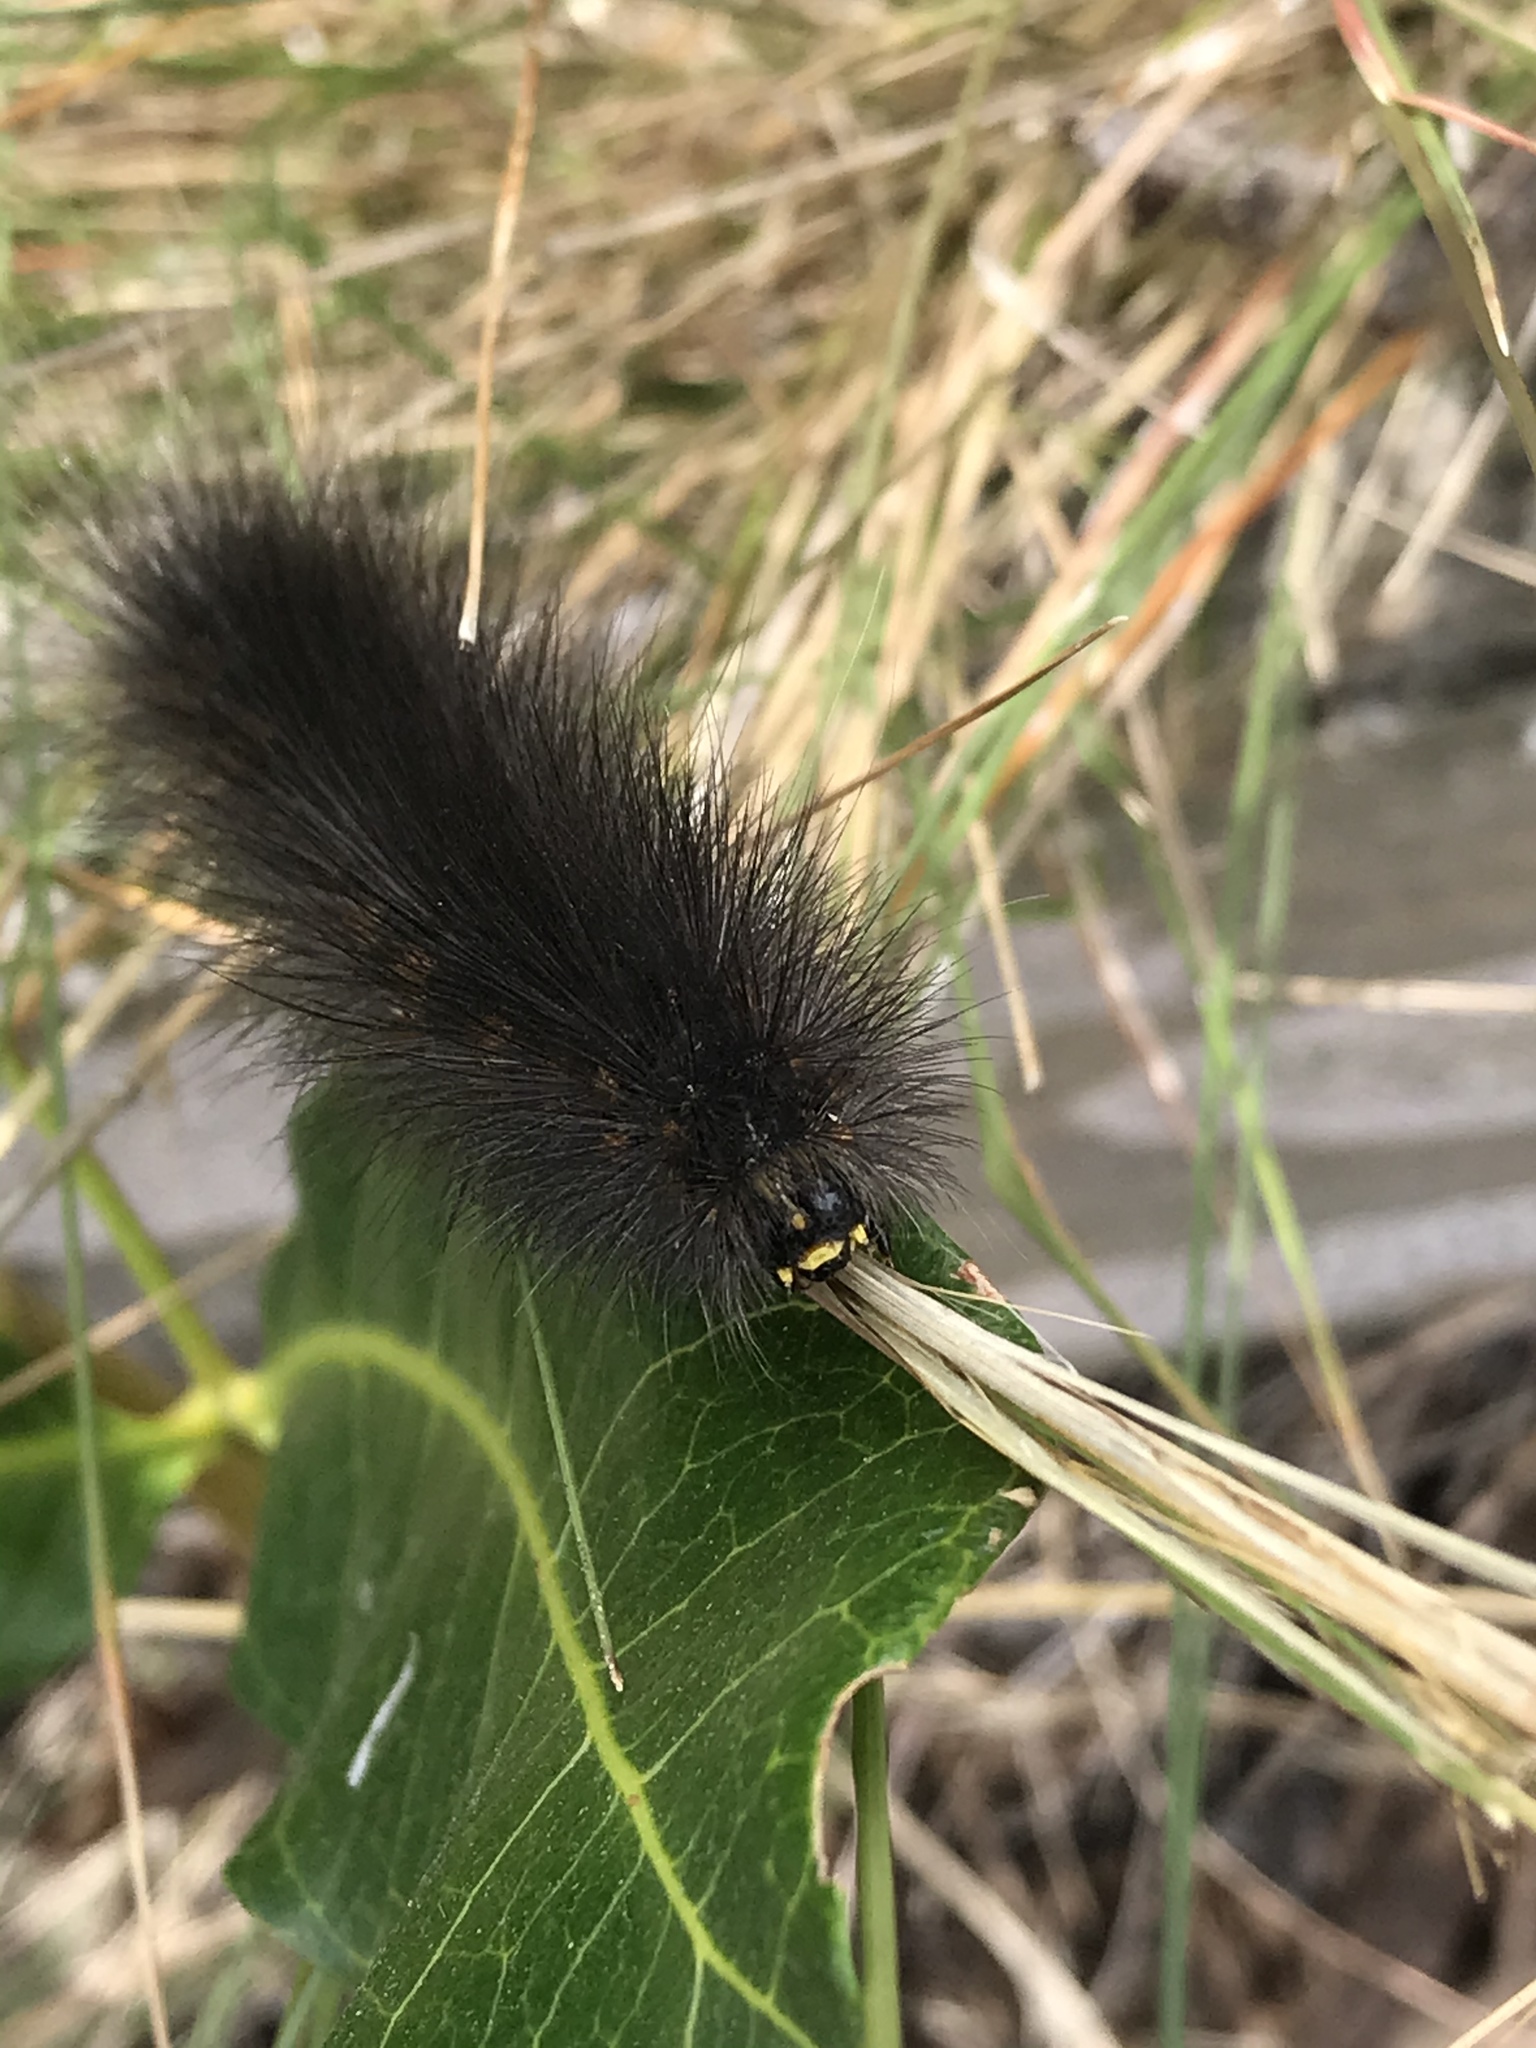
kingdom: Animalia
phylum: Arthropoda
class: Insecta
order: Lepidoptera
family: Erebidae
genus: Estigmene
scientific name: Estigmene acrea
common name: Salt marsh moth
